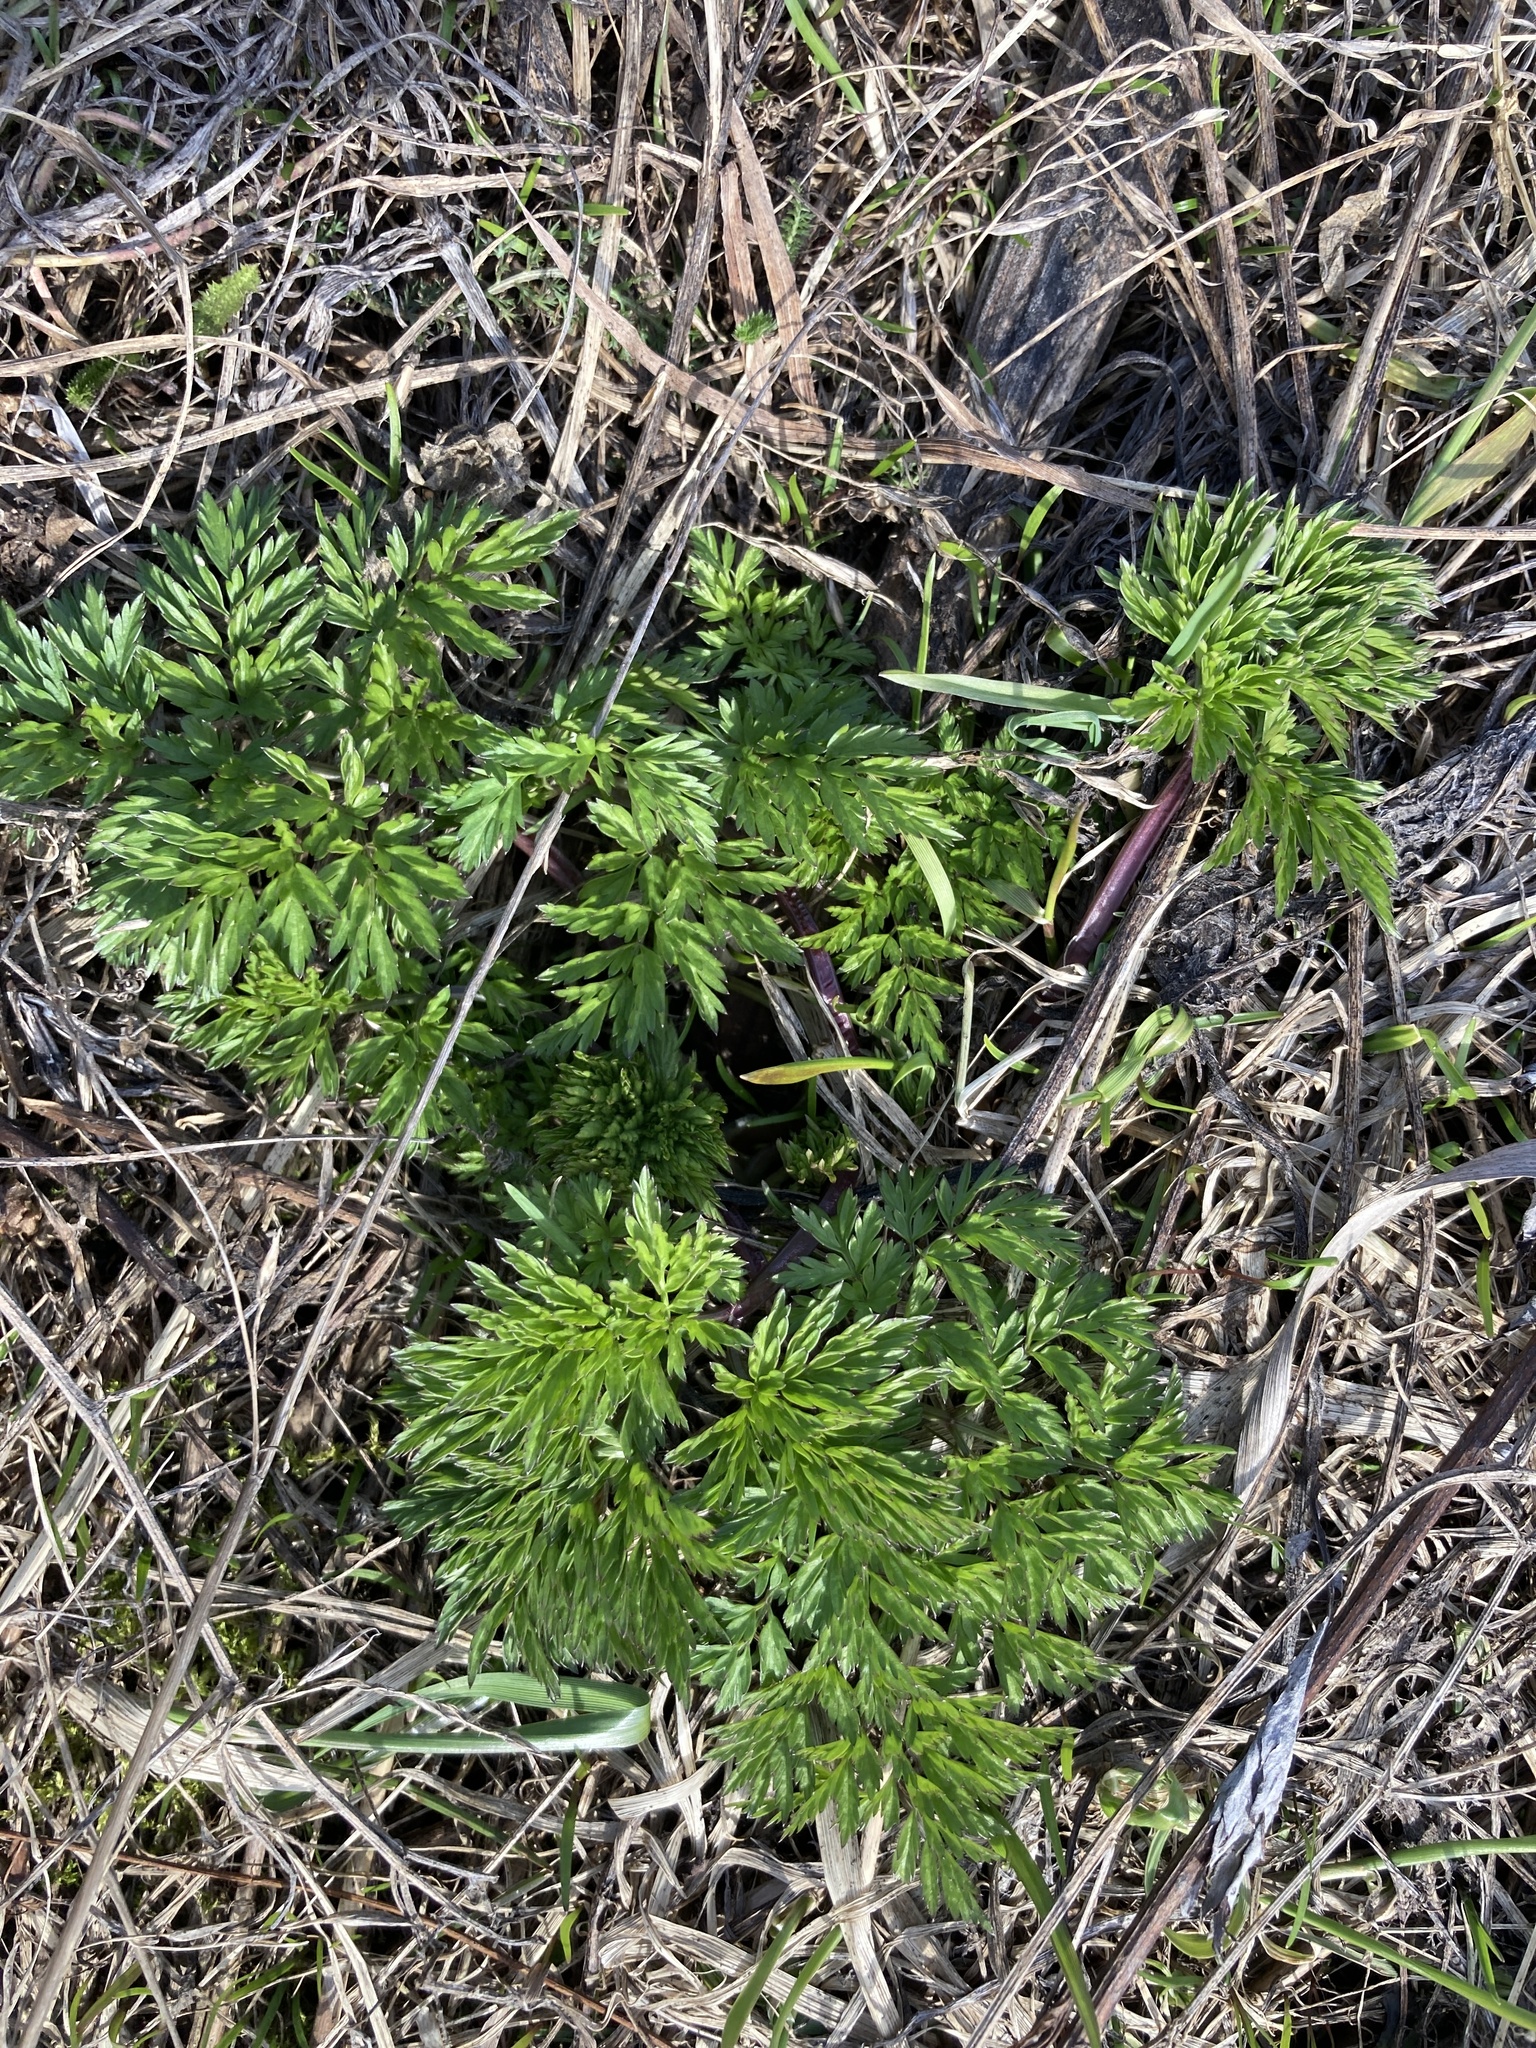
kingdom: Plantae
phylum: Tracheophyta
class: Magnoliopsida
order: Apiales
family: Apiaceae
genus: Anthriscus
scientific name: Anthriscus sylvestris
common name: Cow parsley
